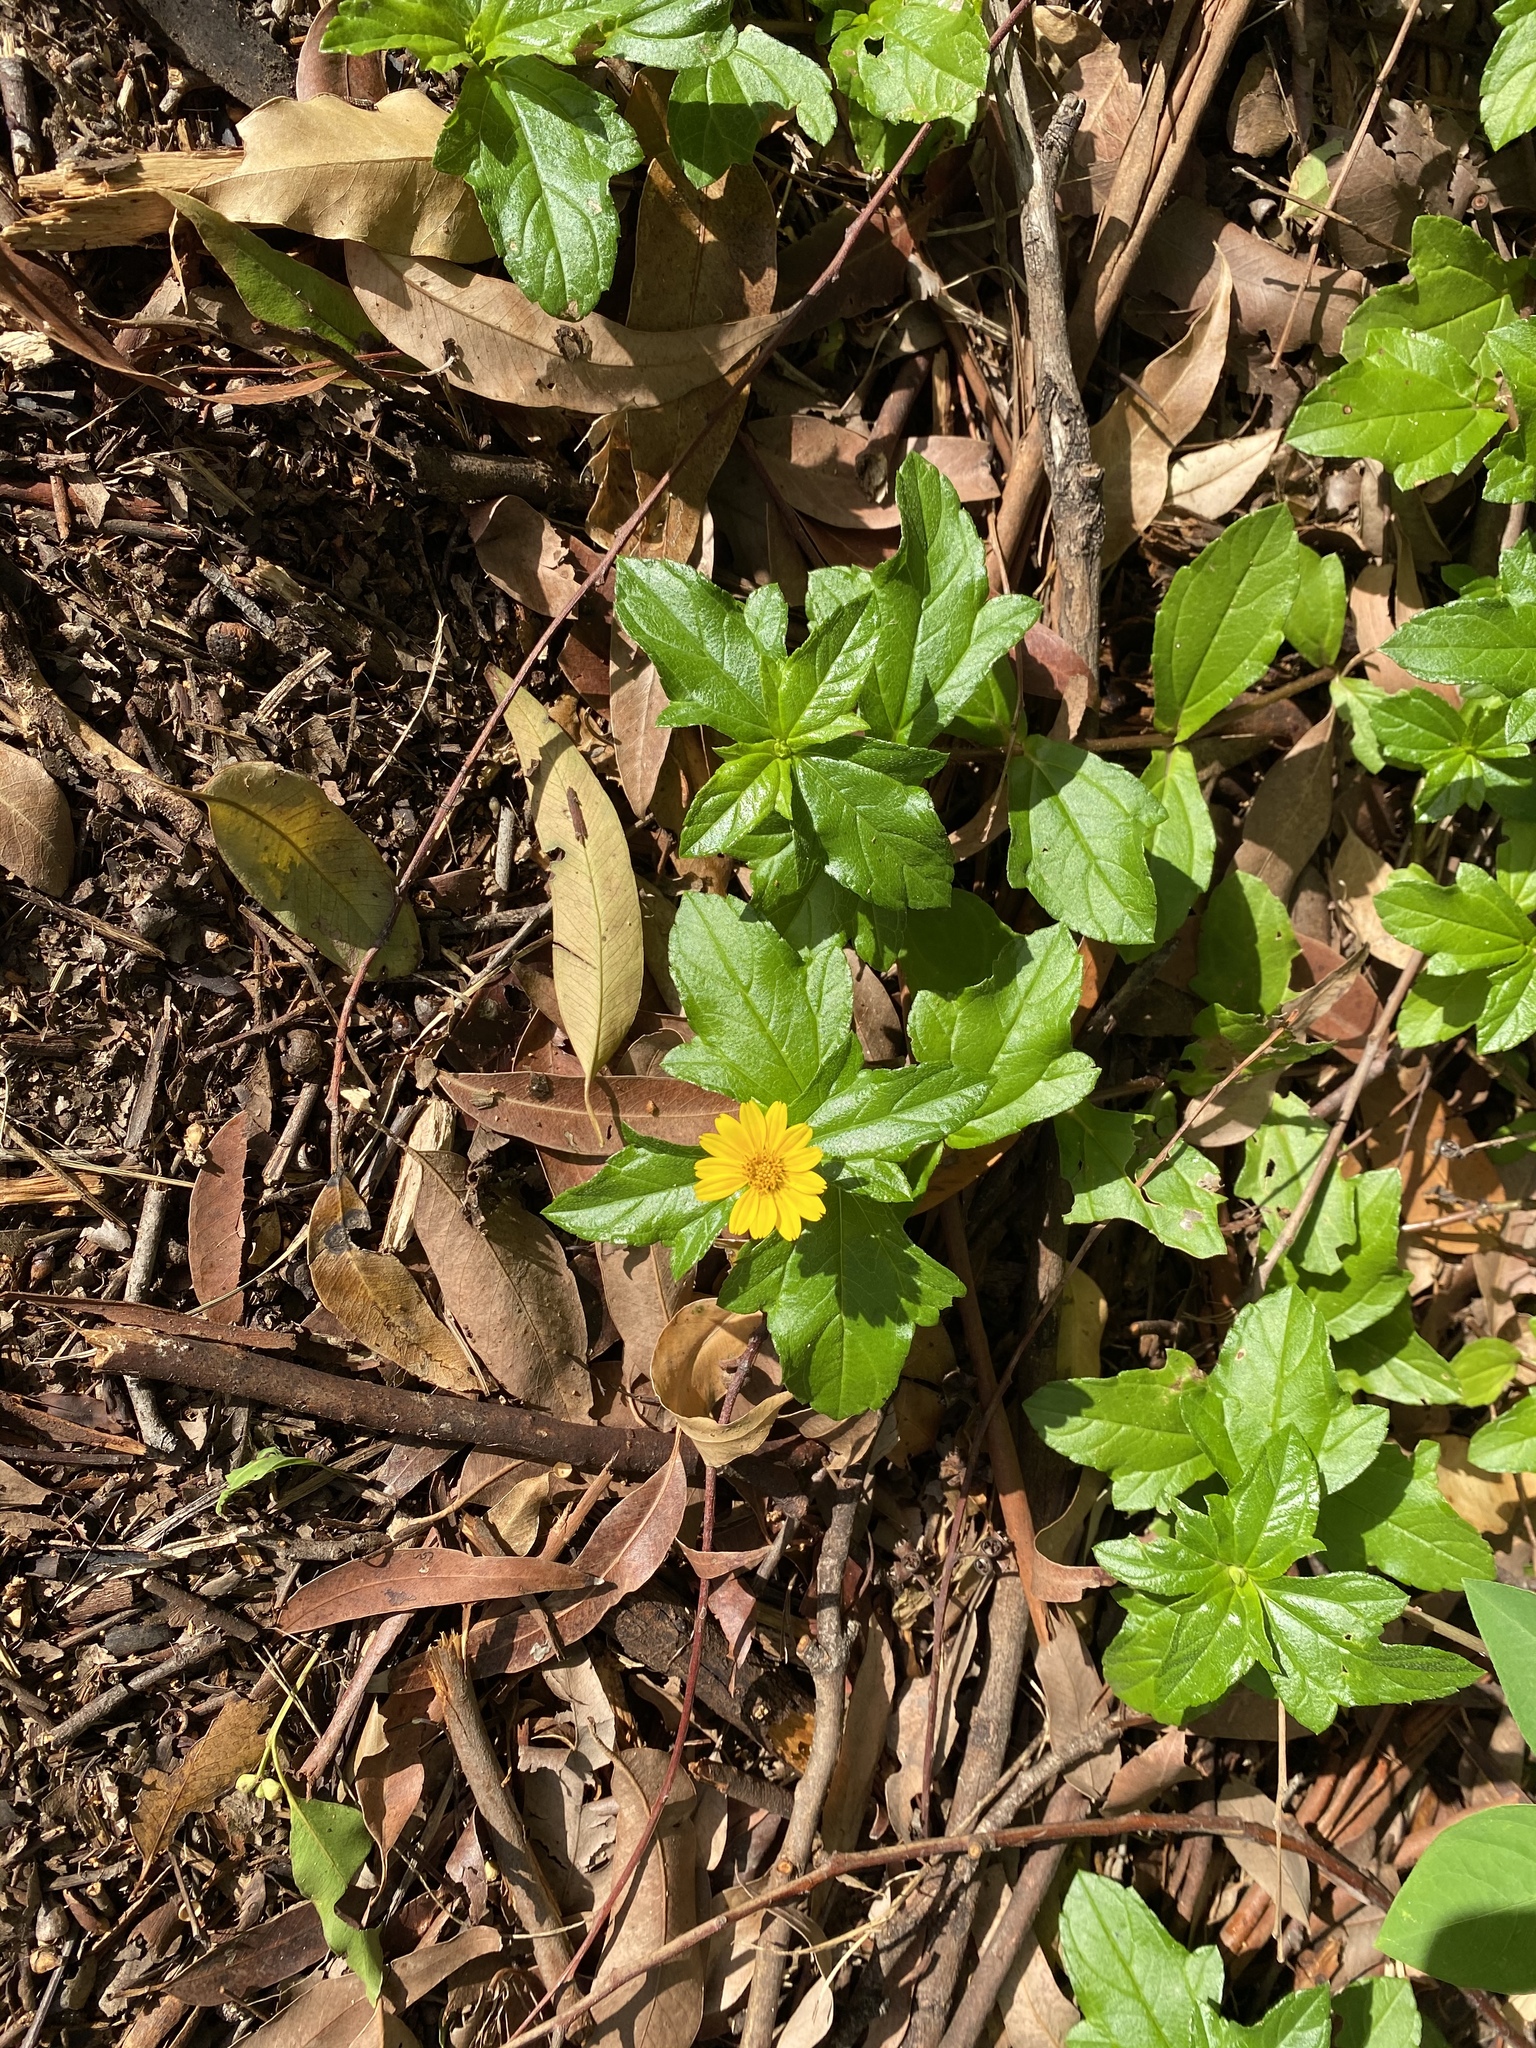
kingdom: Plantae
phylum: Tracheophyta
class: Magnoliopsida
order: Asterales
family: Asteraceae
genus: Sphagneticola
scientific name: Sphagneticola trilobata
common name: Bay biscayne creeping-oxeye
